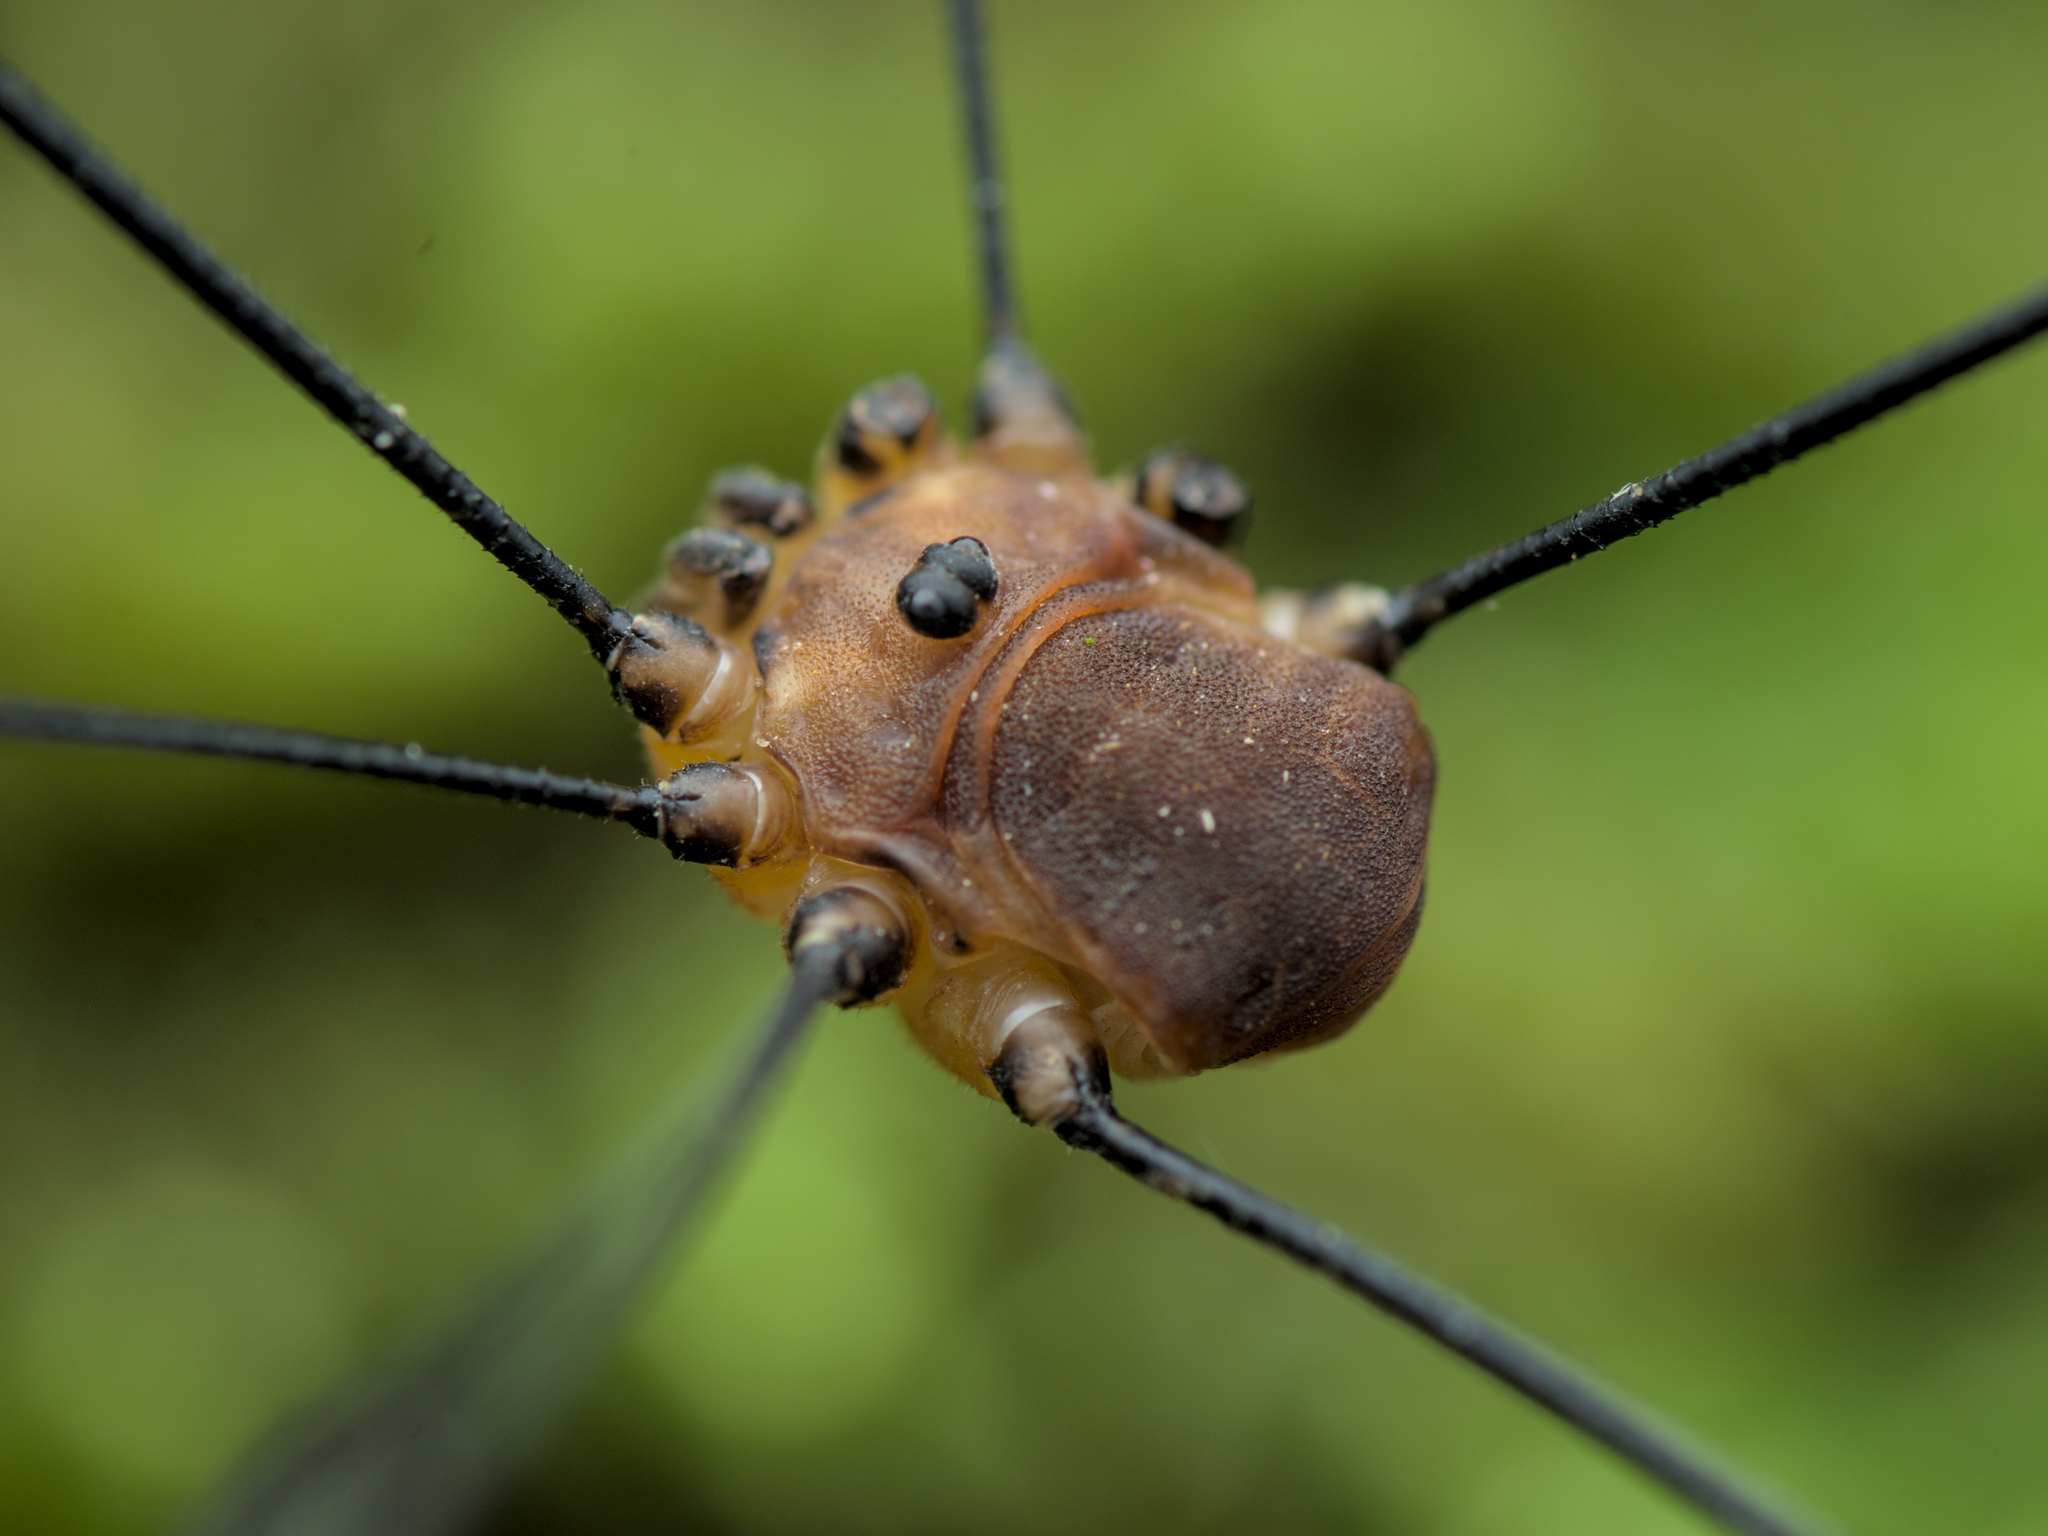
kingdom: Animalia
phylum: Arthropoda
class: Arachnida
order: Opiliones
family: Sclerosomatidae
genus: Leiobunum
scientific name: Leiobunum rotundum
